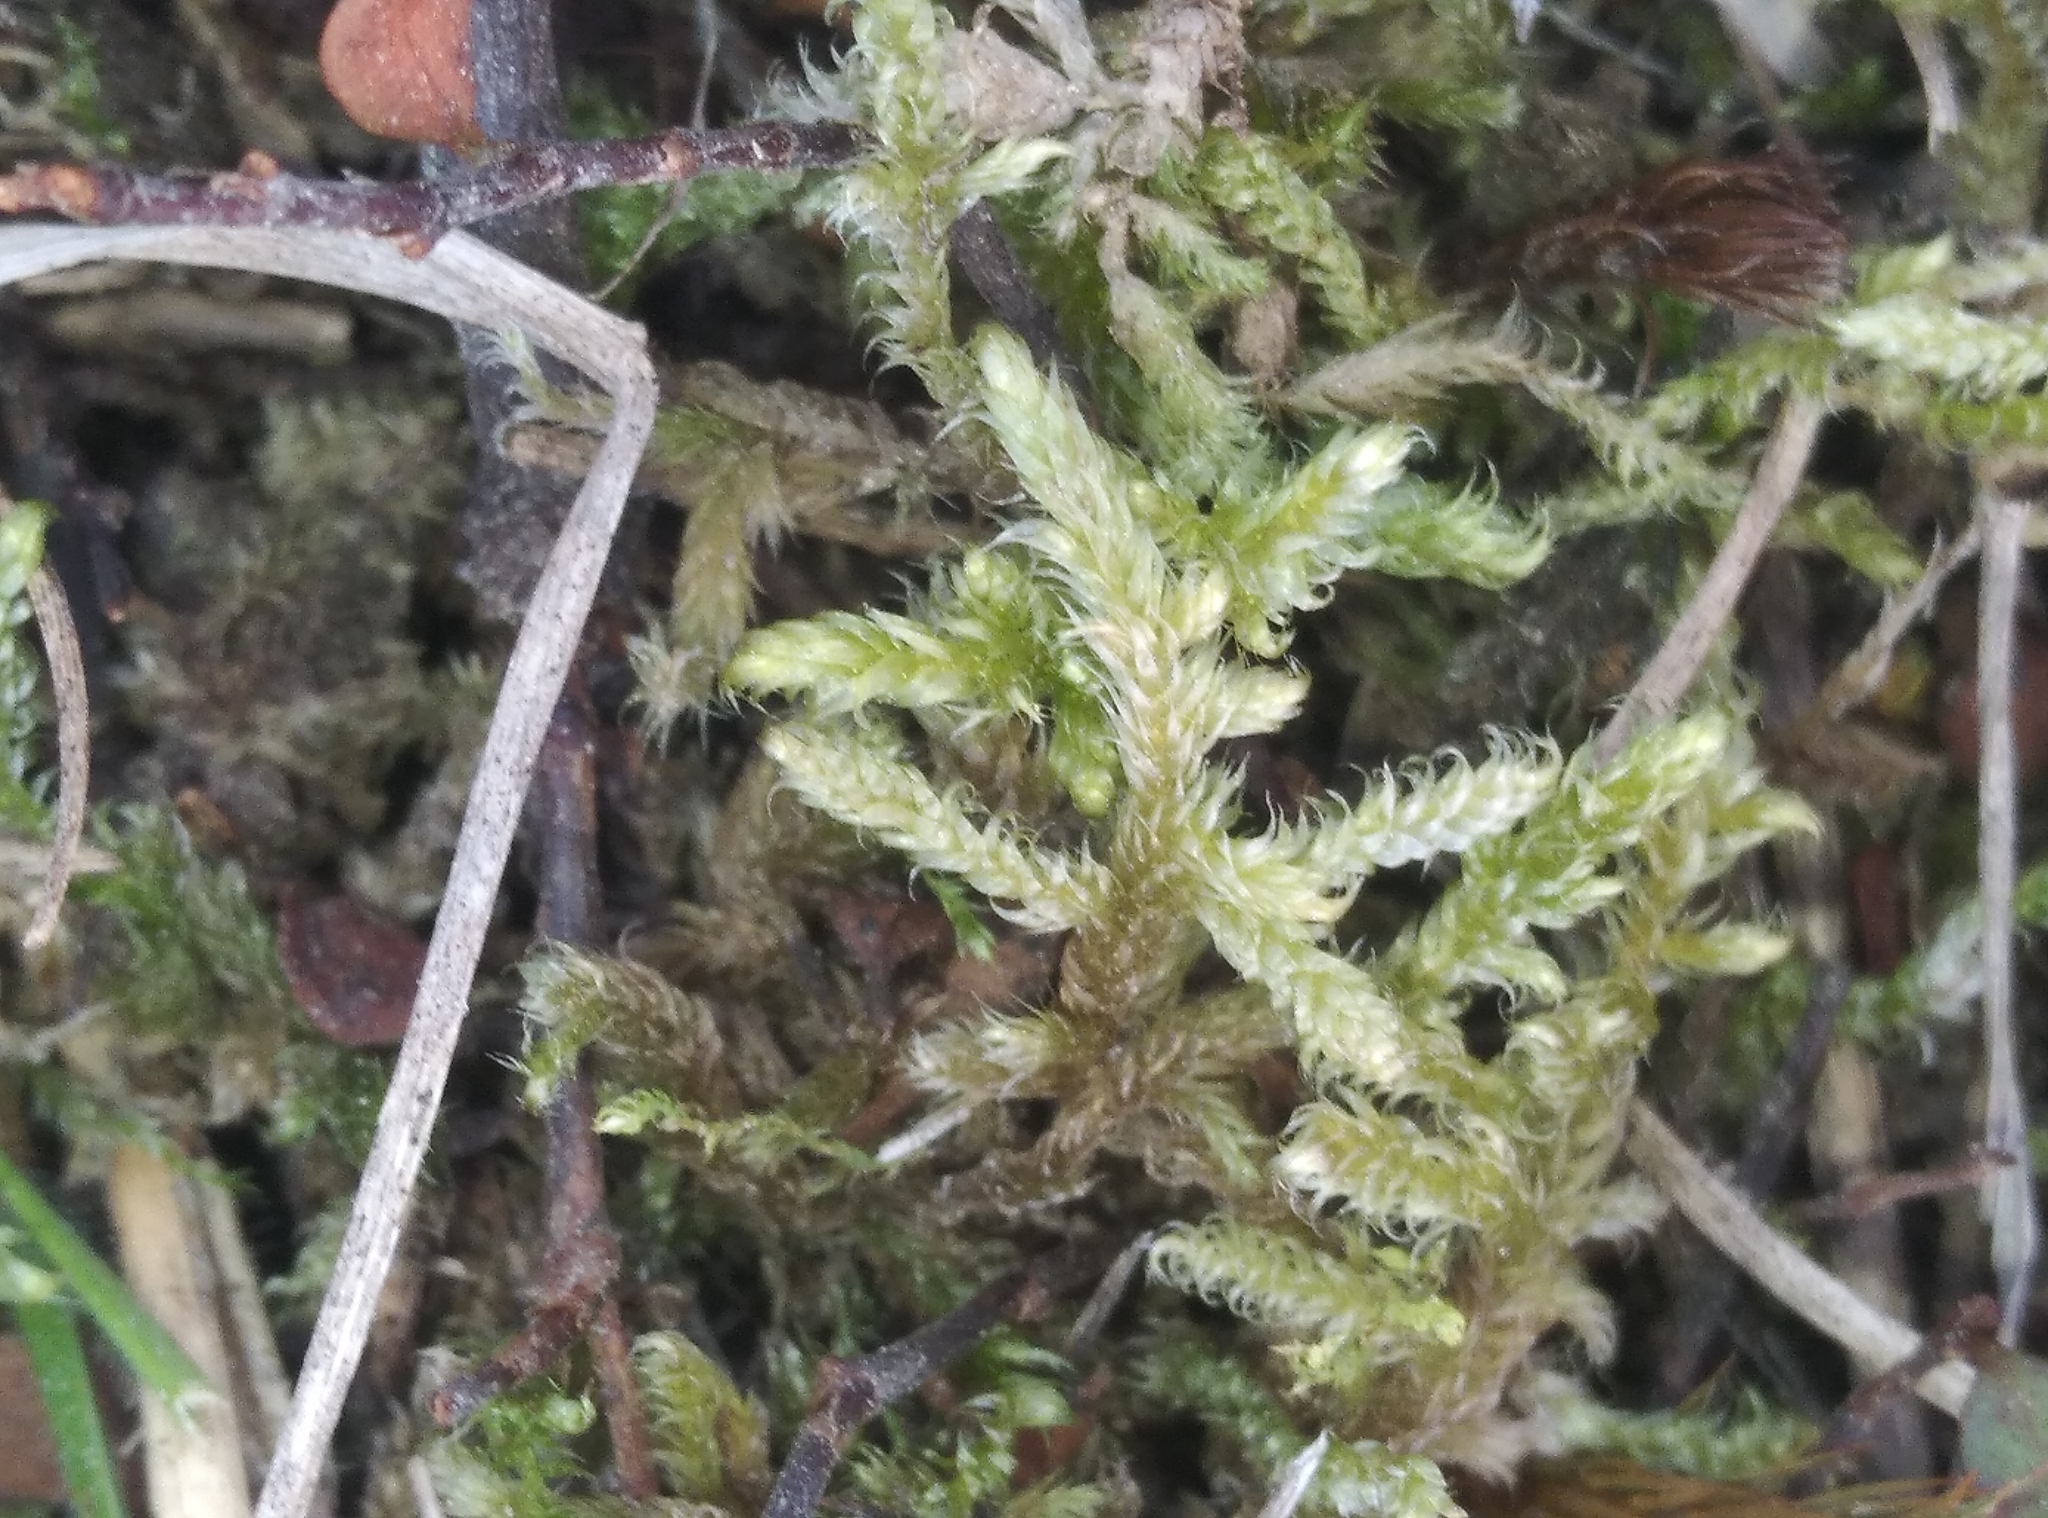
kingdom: Plantae
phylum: Bryophyta
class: Bryopsida
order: Hypnales
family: Hypnaceae
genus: Hypnum
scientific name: Hypnum cupressiforme
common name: Cypress-leaved plait-moss
